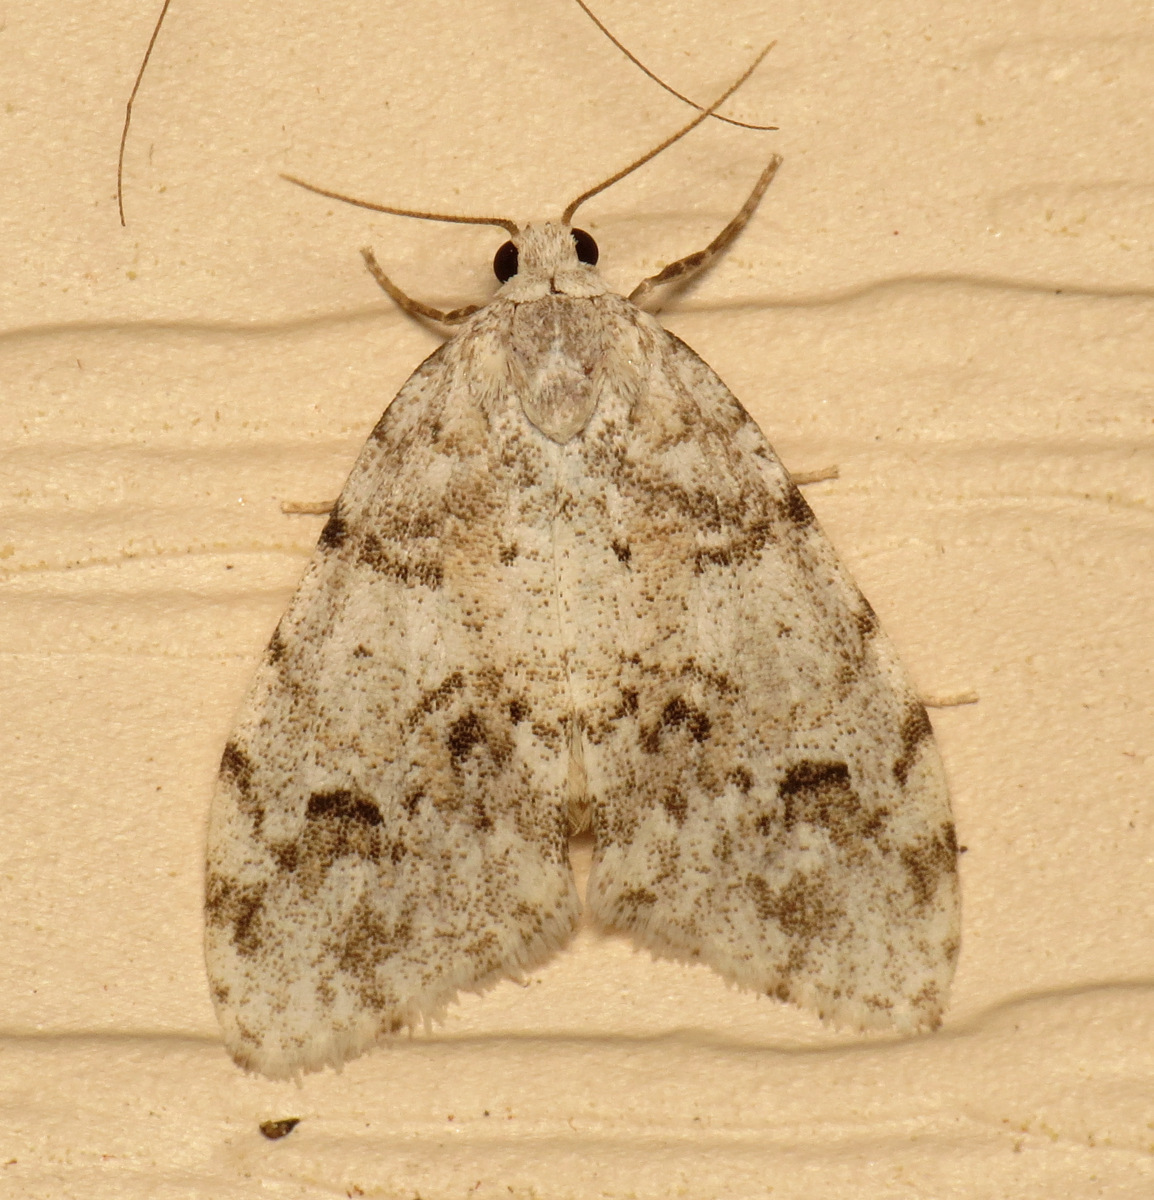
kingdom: Animalia
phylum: Arthropoda
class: Insecta
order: Lepidoptera
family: Erebidae
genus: Clemensia
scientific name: Clemensia albata
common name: Little white lichen moth
